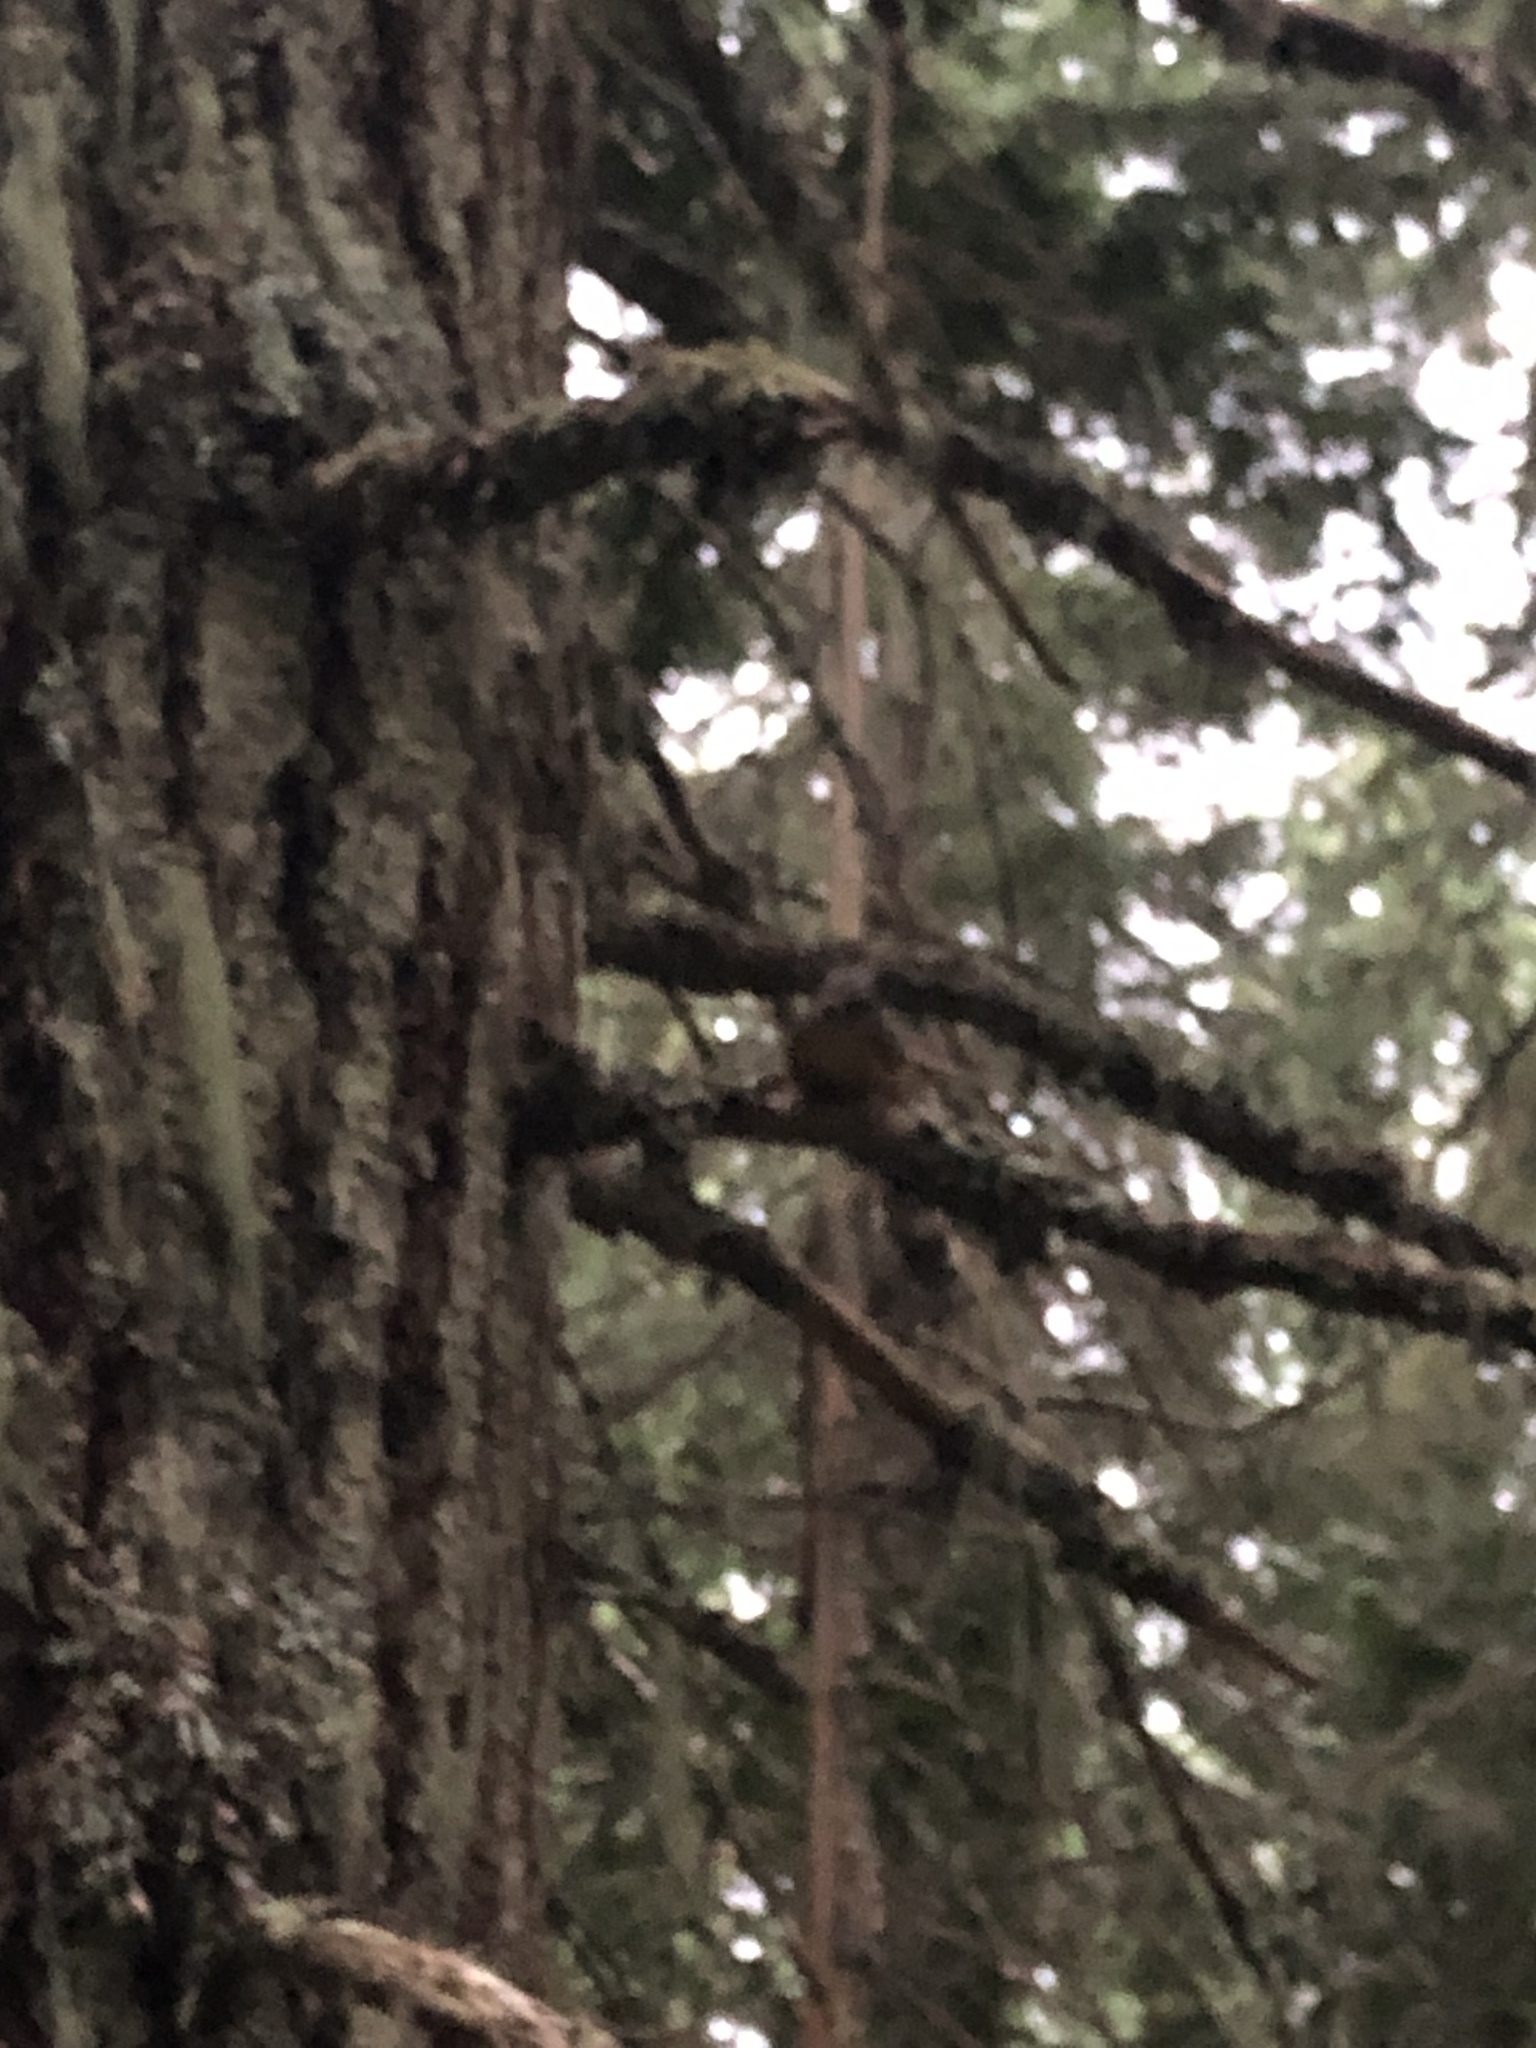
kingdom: Animalia
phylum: Chordata
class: Mammalia
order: Rodentia
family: Sciuridae
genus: Tamiasciurus
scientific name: Tamiasciurus douglasii
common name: Douglas's squirrel
